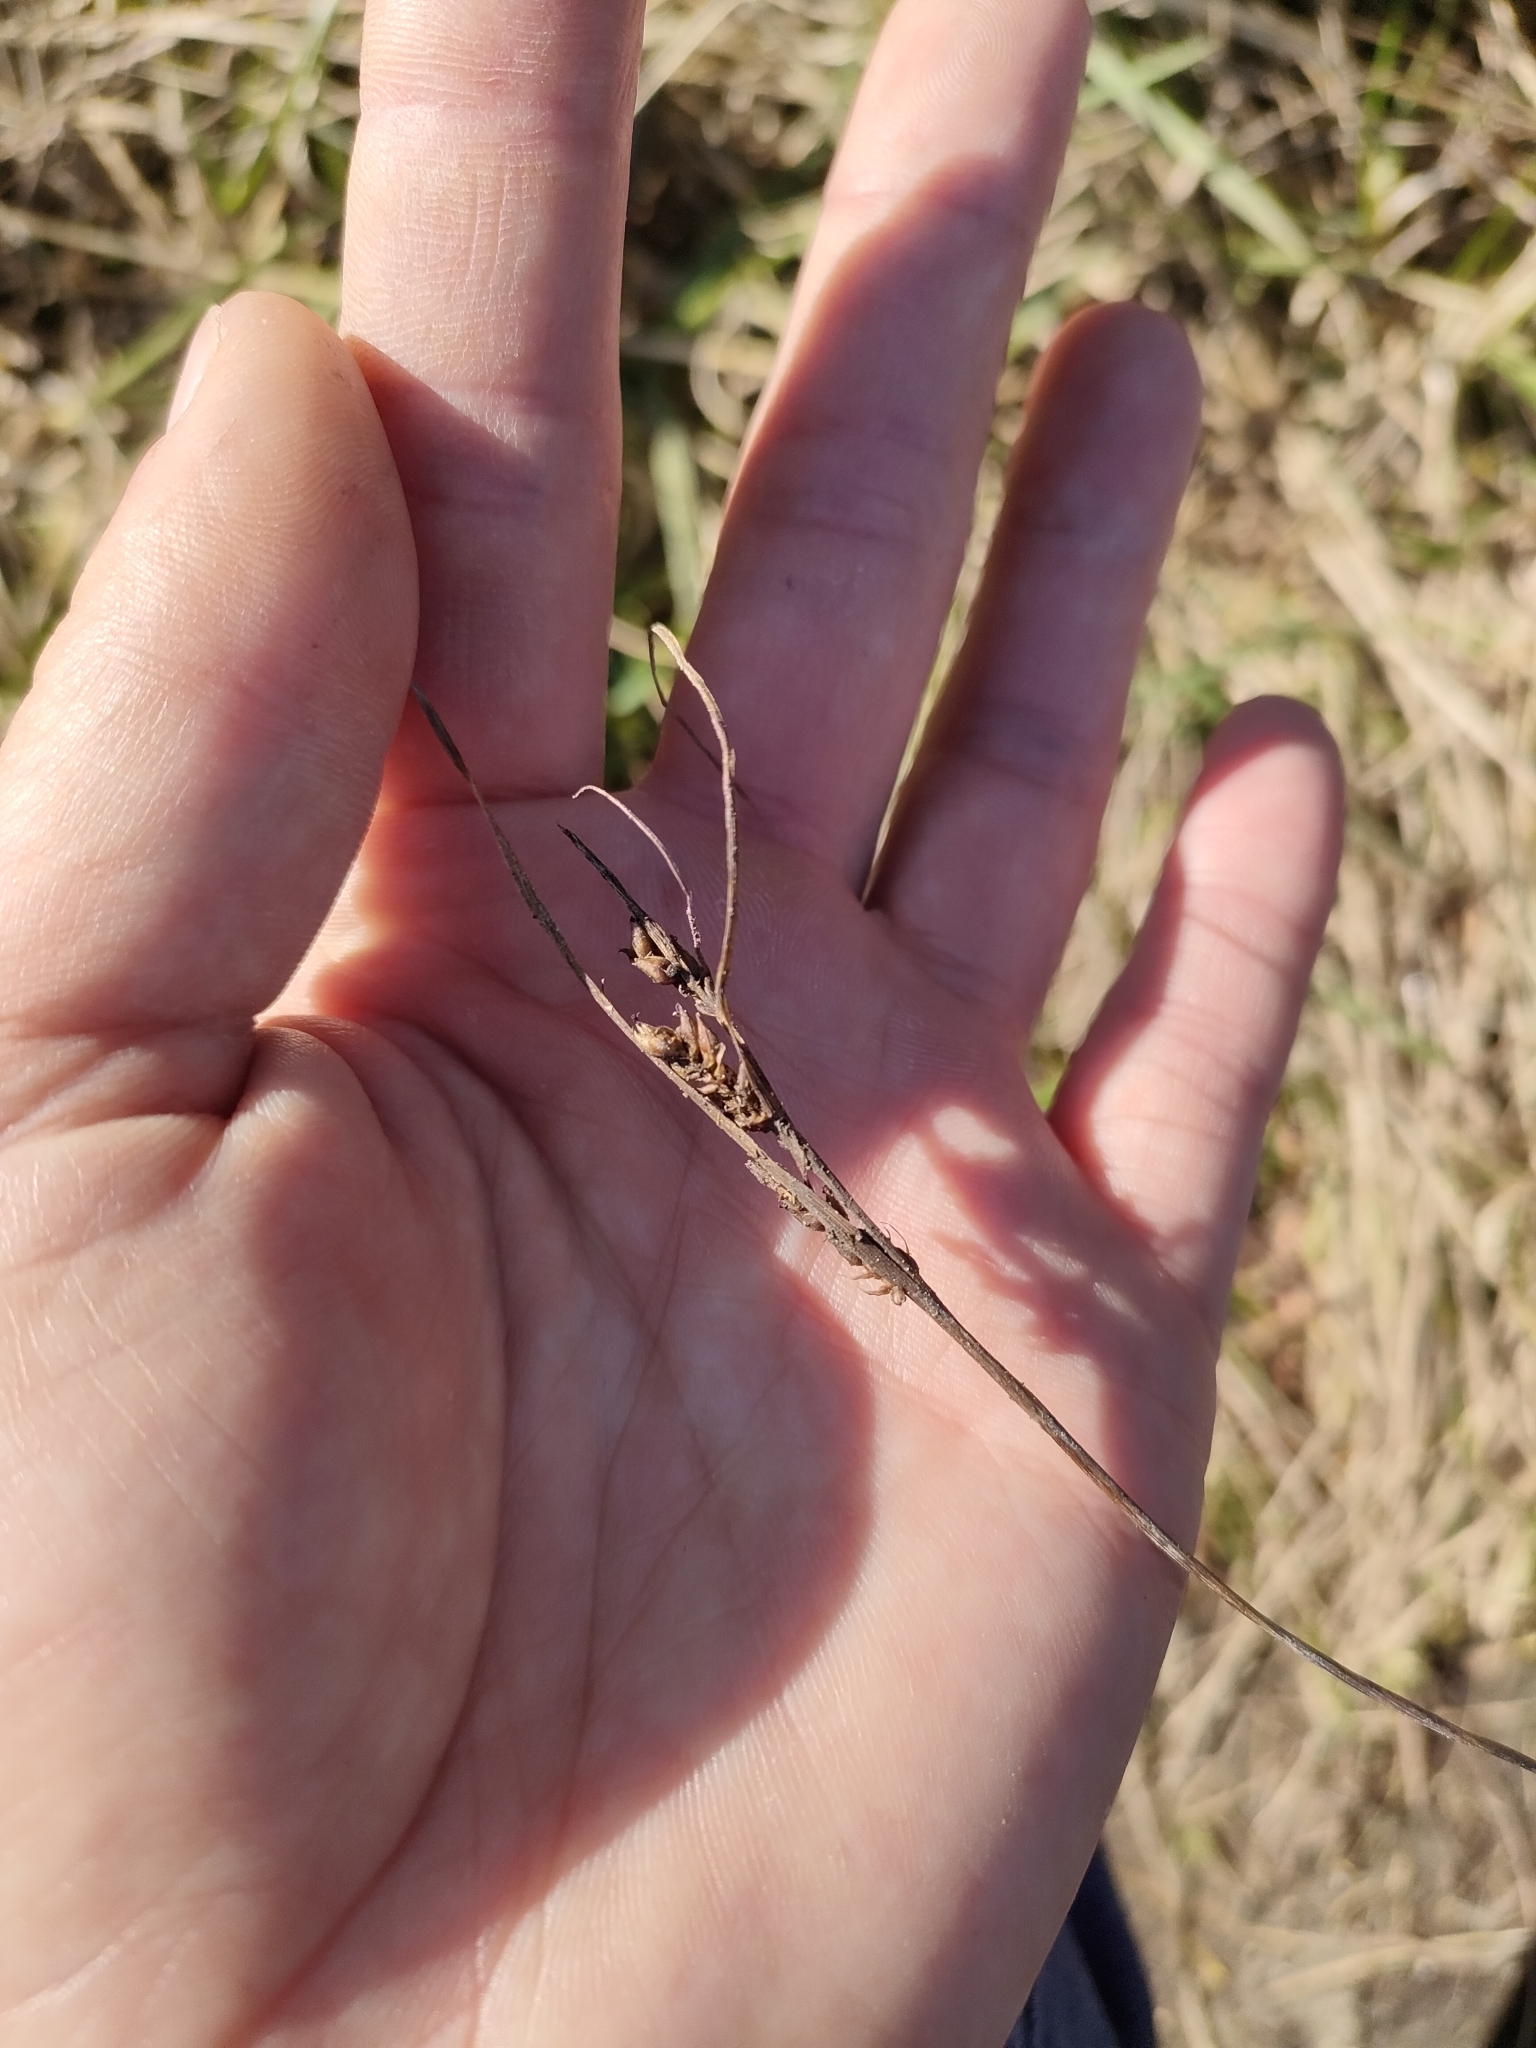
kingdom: Plantae
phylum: Tracheophyta
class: Liliopsida
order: Poales
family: Cyperaceae
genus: Carex
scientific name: Carex litorosa
